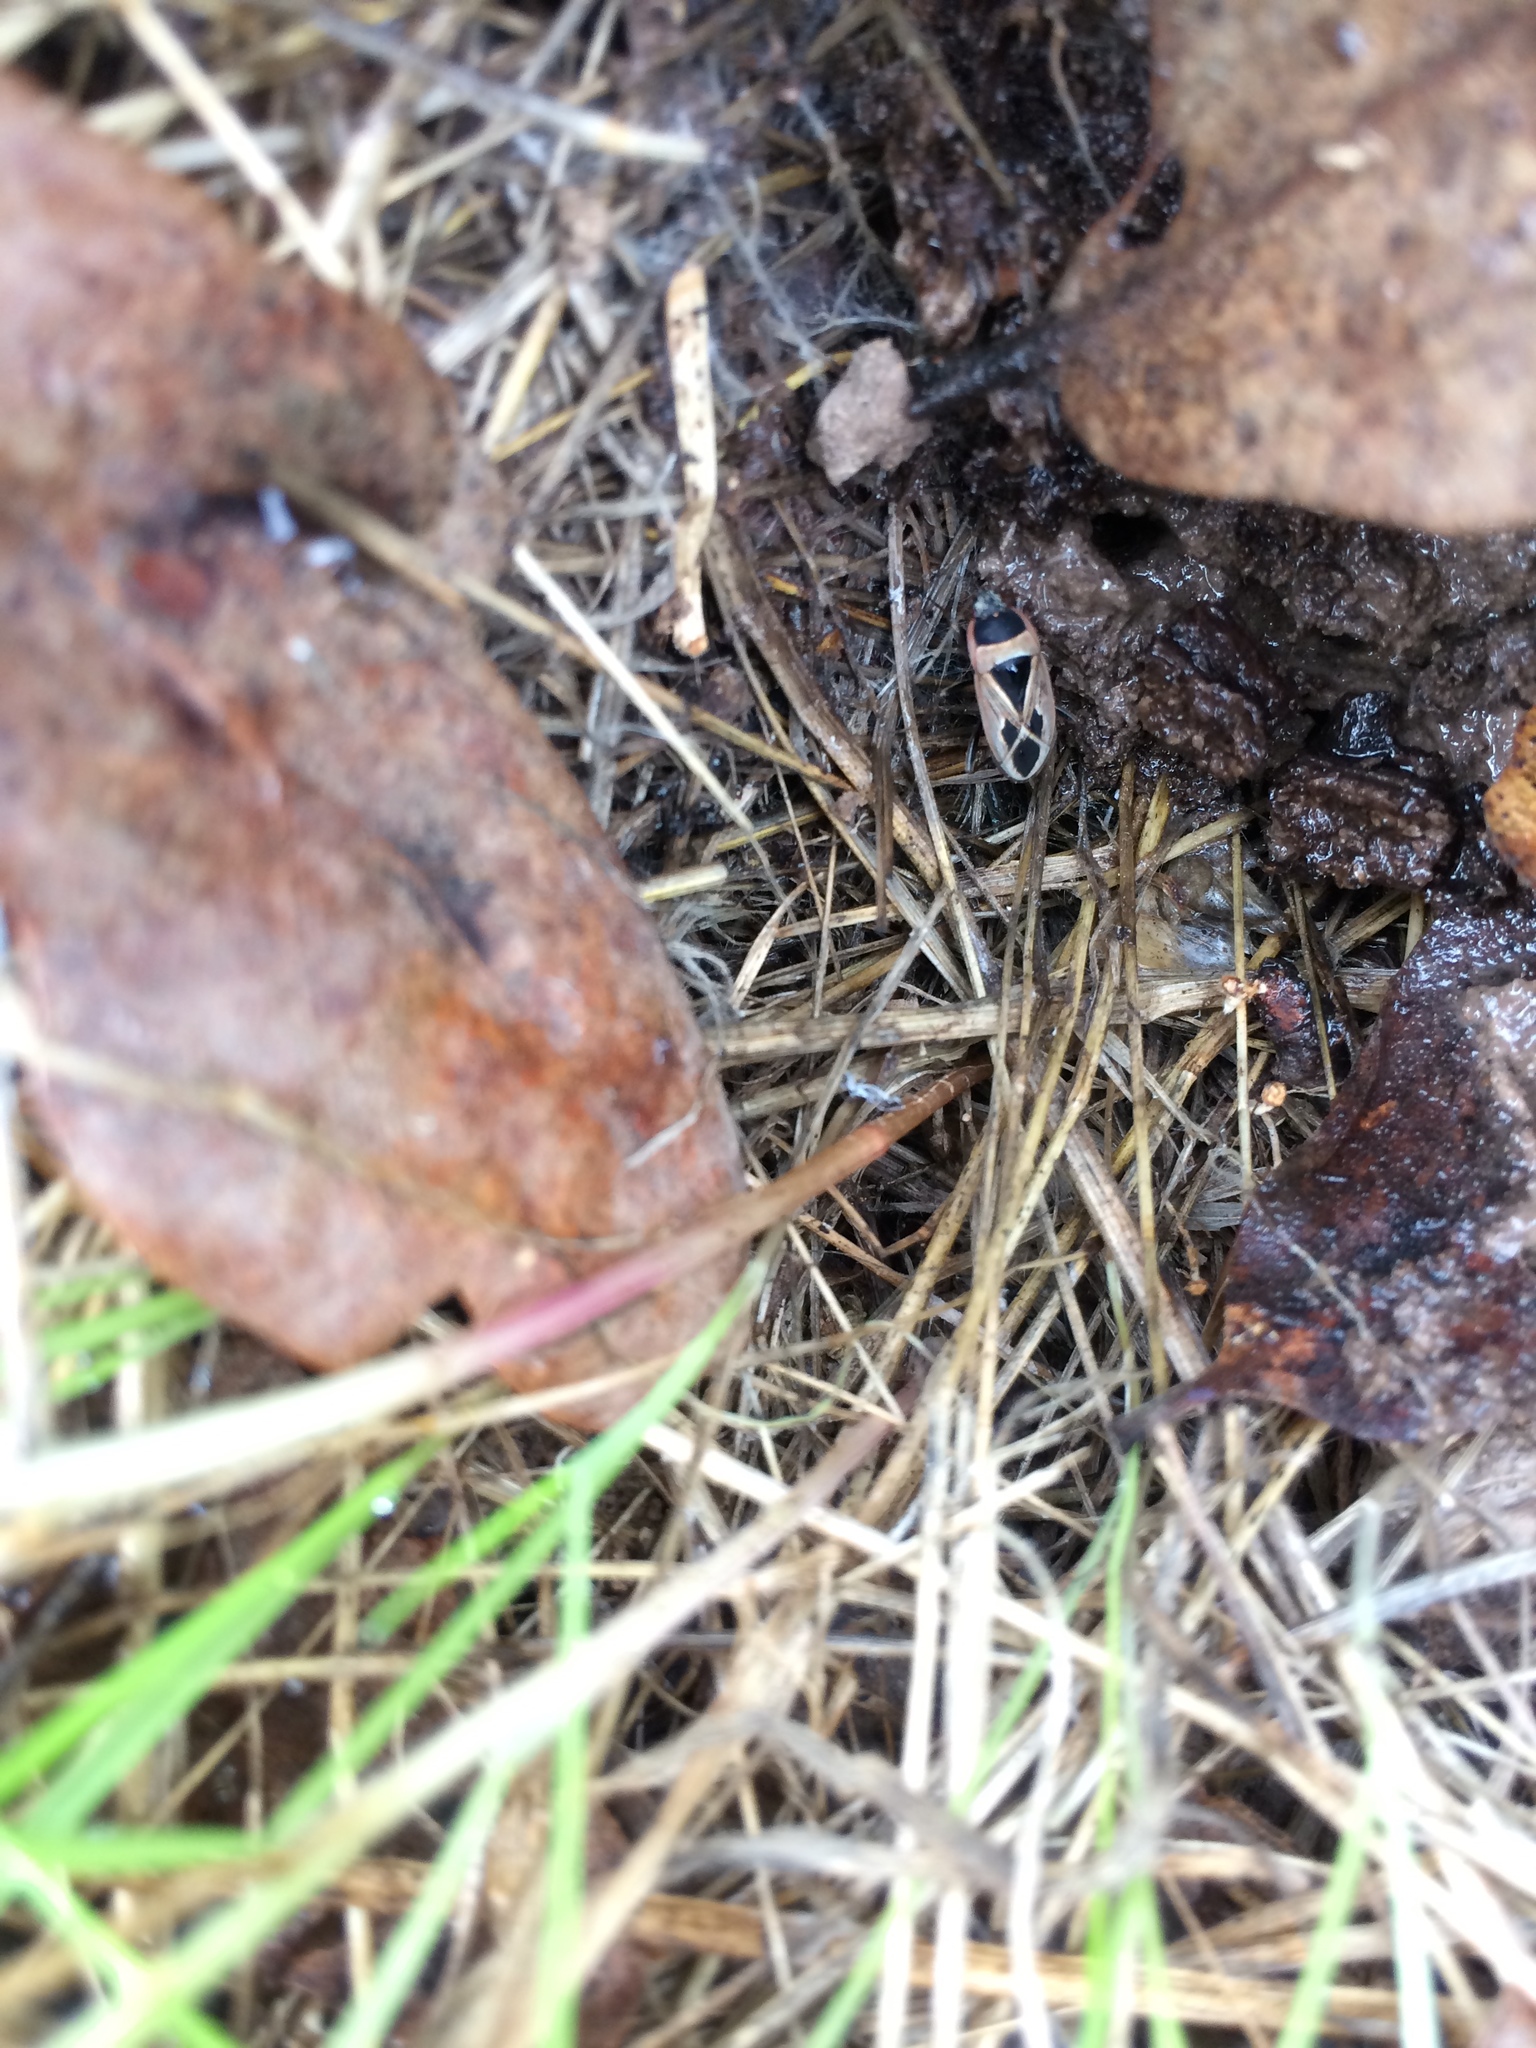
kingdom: Animalia
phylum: Arthropoda
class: Insecta
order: Hemiptera
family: Rhyparochromidae
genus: Xanthochilus
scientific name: Xanthochilus saturnius
